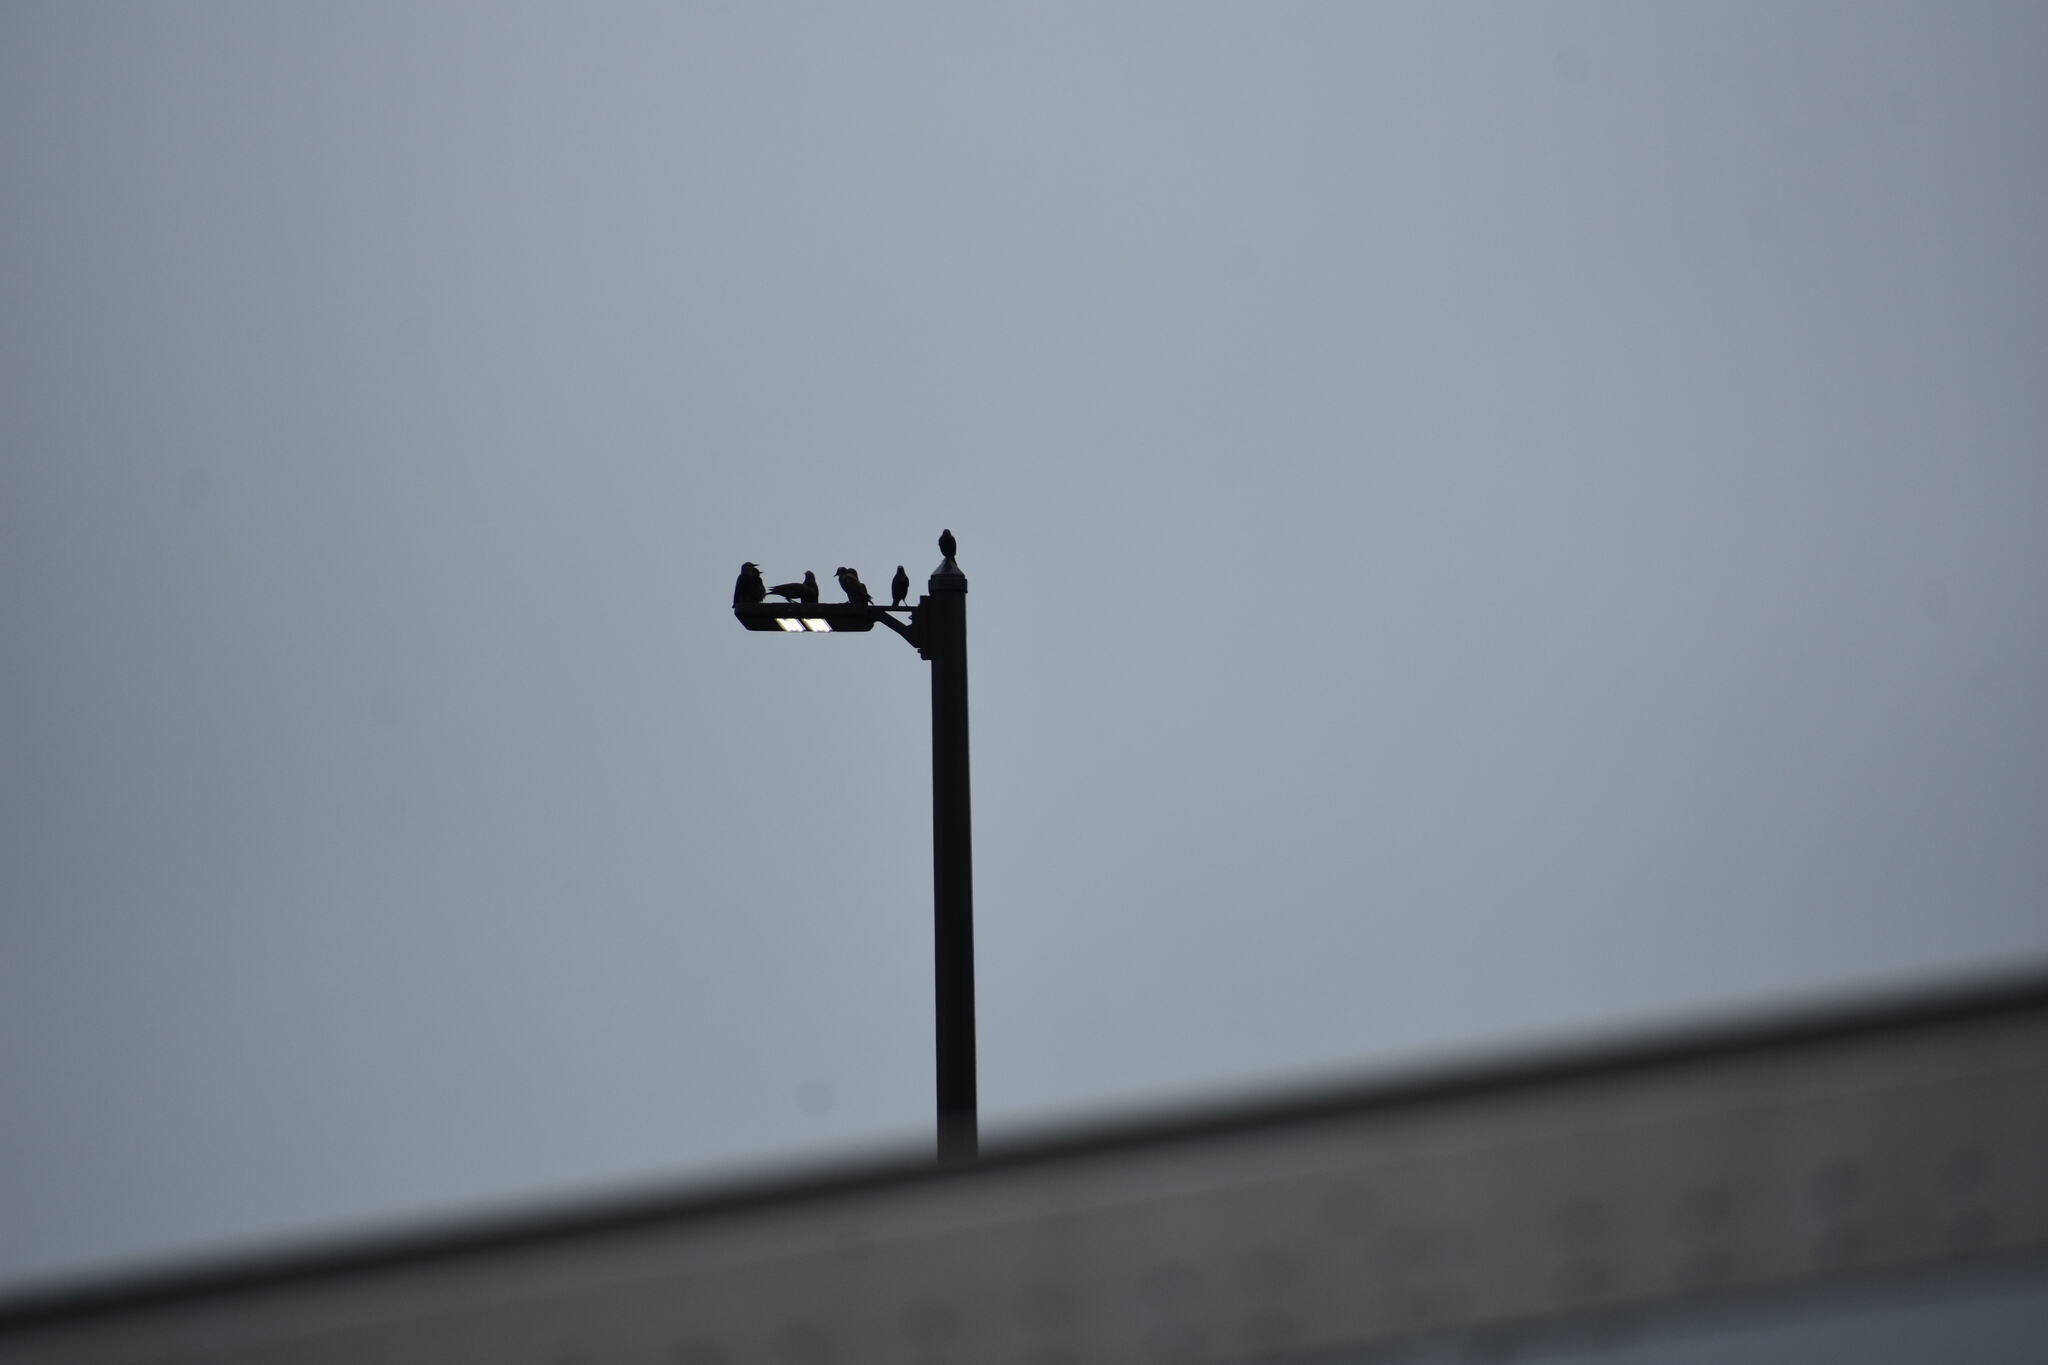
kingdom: Animalia
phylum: Chordata
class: Aves
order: Passeriformes
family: Sturnidae
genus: Sturnus
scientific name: Sturnus vulgaris
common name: Common starling
